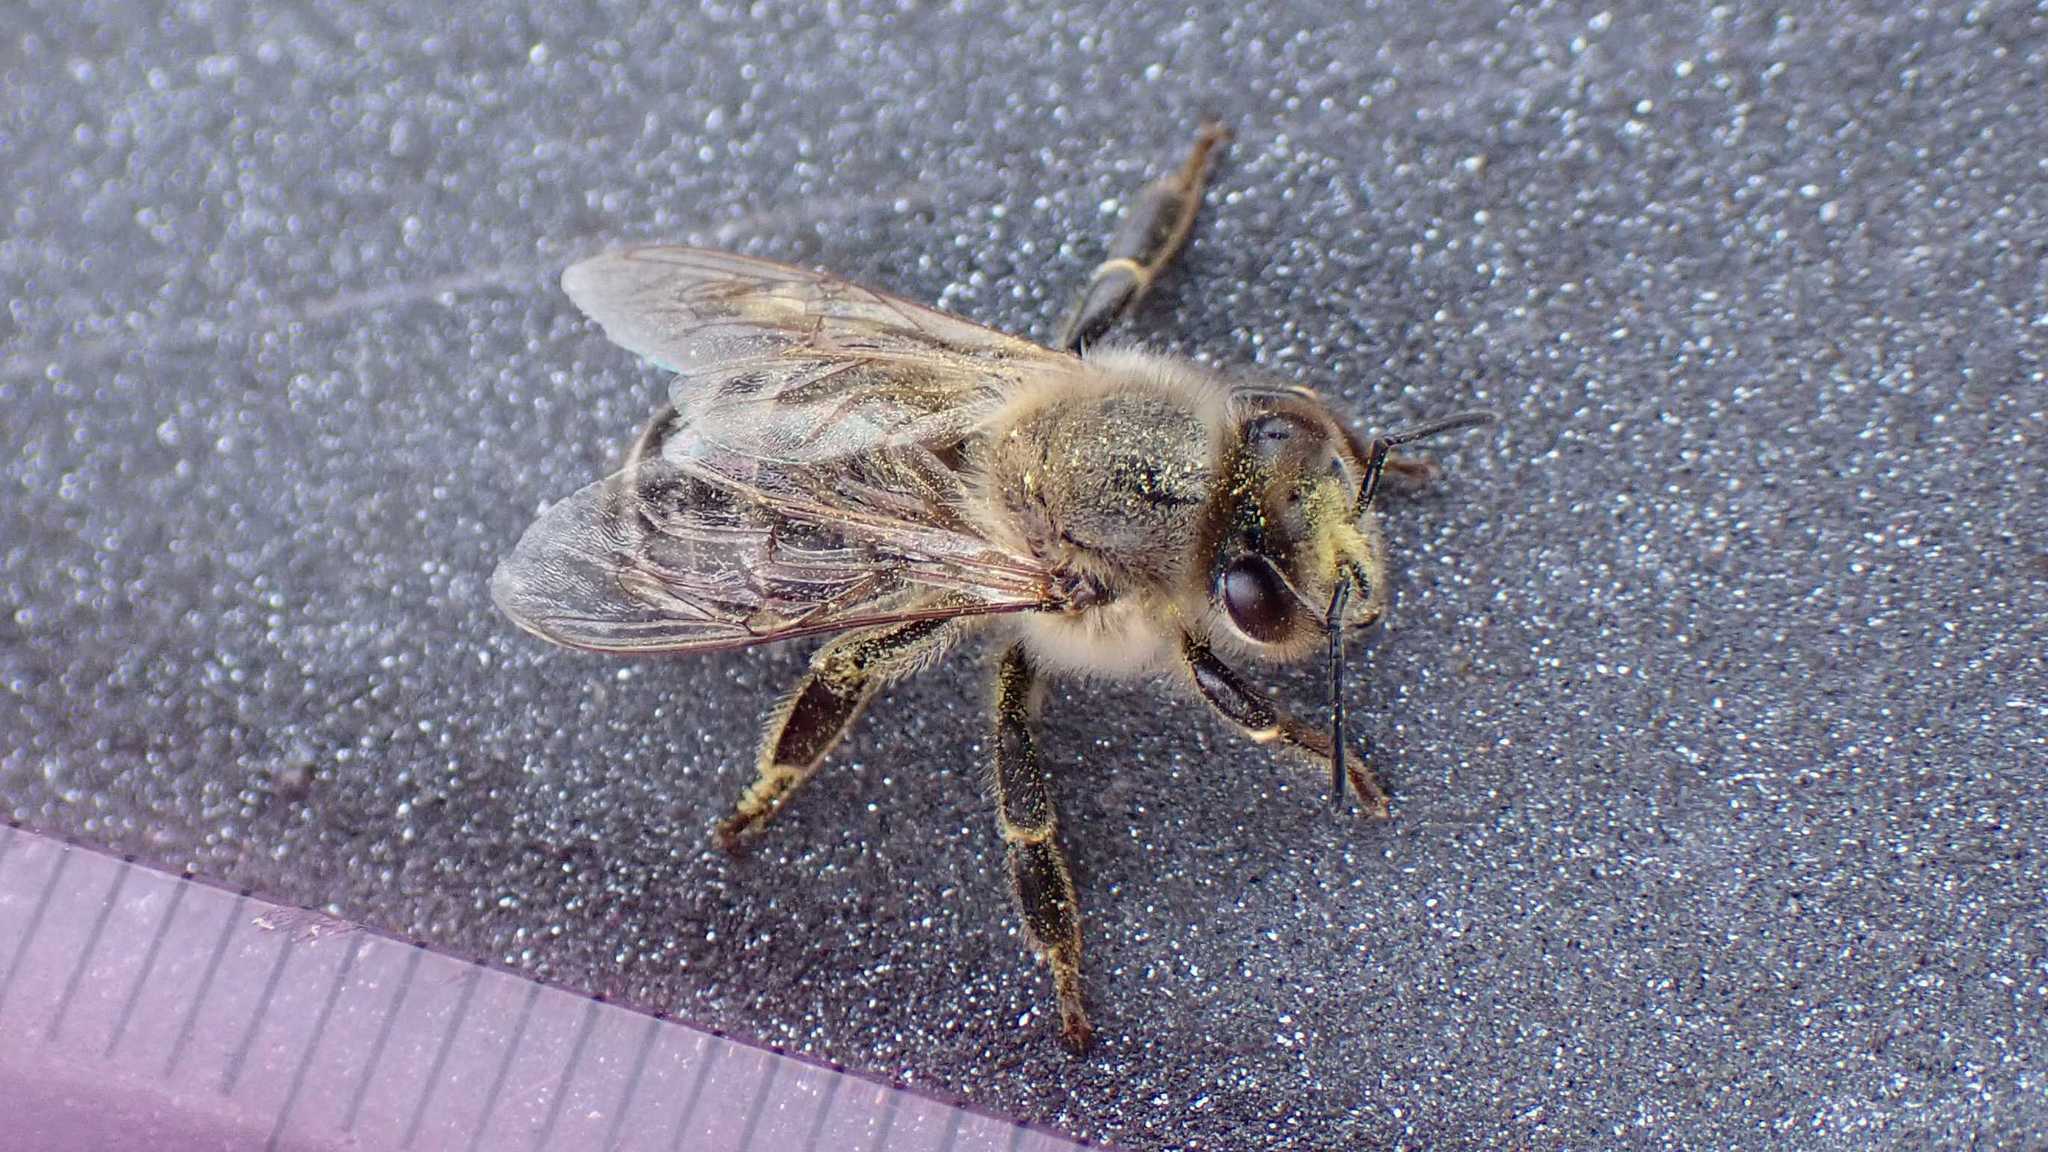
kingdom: Animalia
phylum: Arthropoda
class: Insecta
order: Hymenoptera
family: Apidae
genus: Apis
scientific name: Apis mellifera
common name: Honey bee
